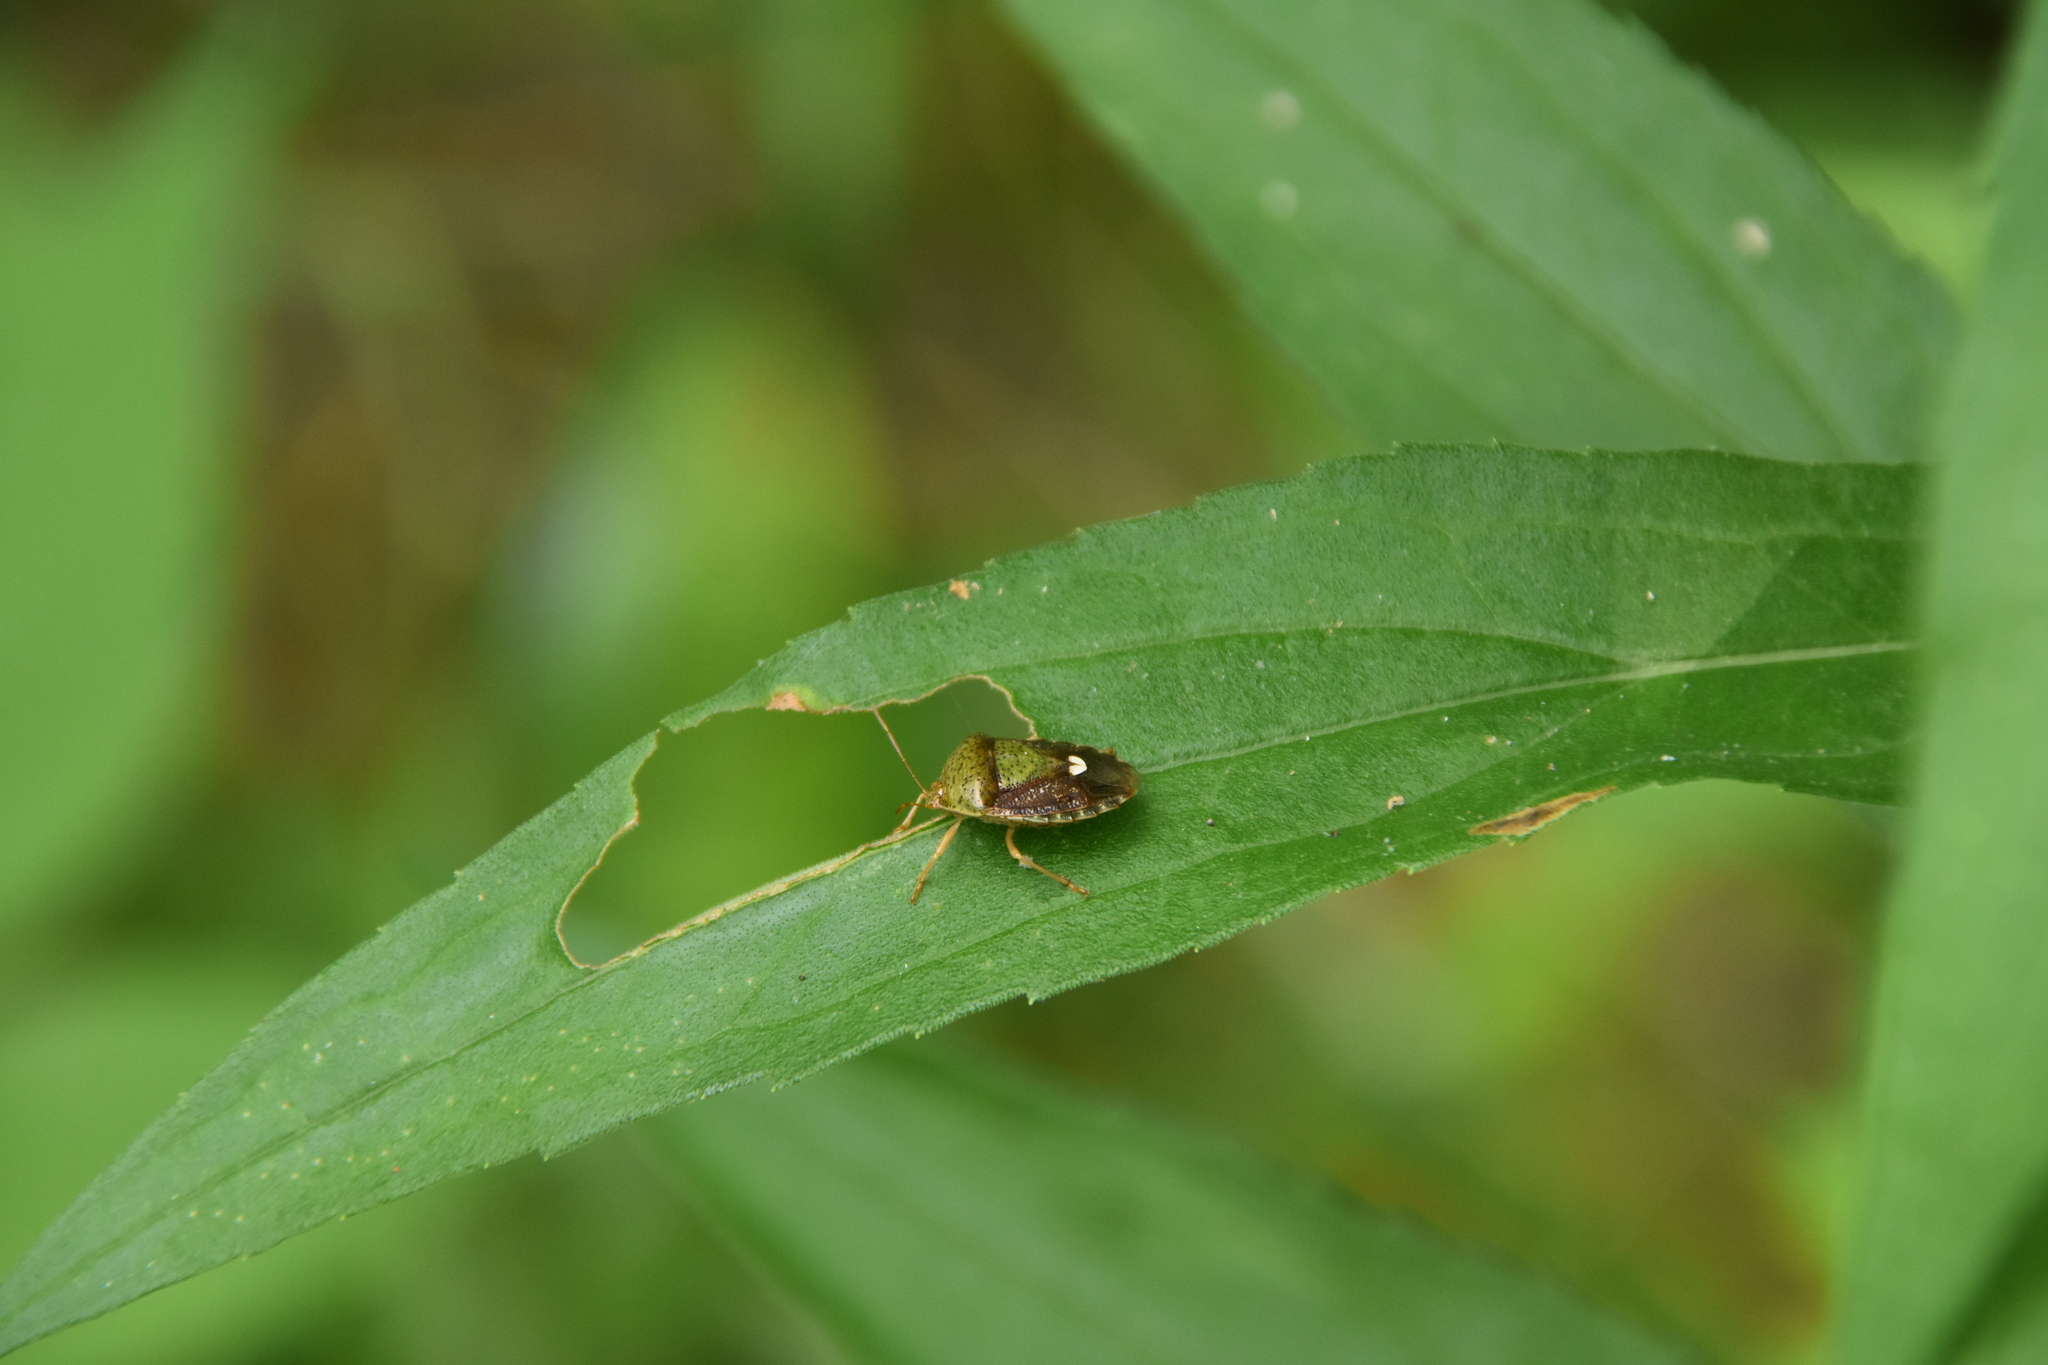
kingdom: Animalia
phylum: Arthropoda
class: Insecta
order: Hemiptera
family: Pentatomidae
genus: Edessa
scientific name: Edessa bifida
